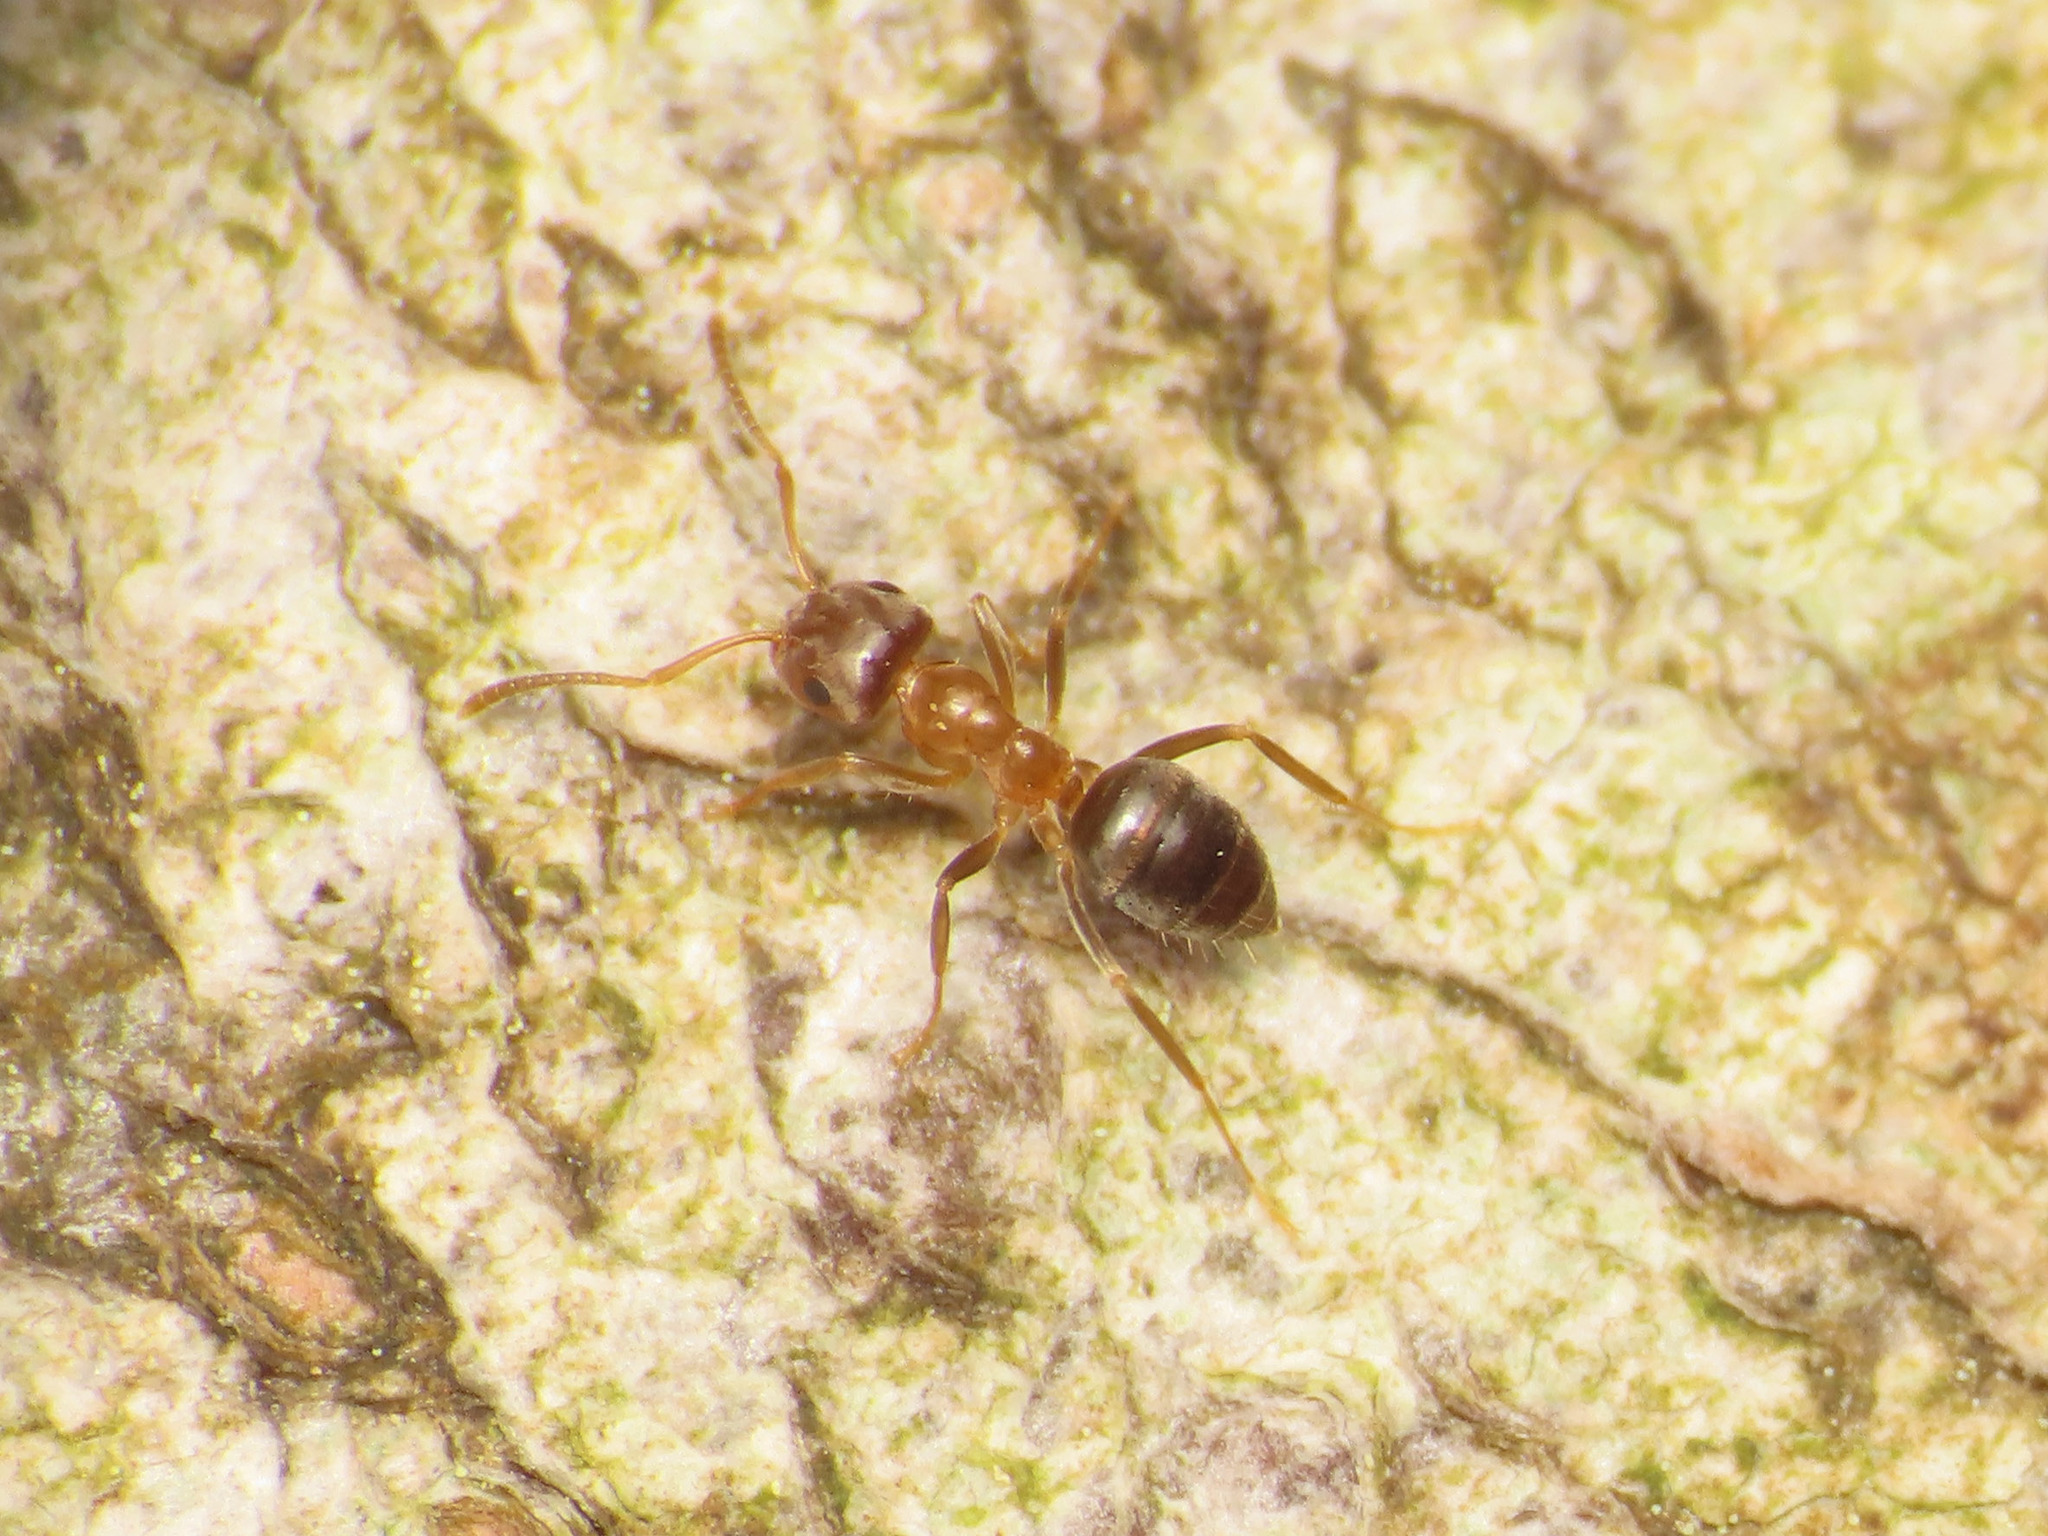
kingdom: Animalia
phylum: Arthropoda
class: Insecta
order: Hymenoptera
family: Formicidae
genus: Lasius
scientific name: Lasius brunneus
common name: Brown ant
